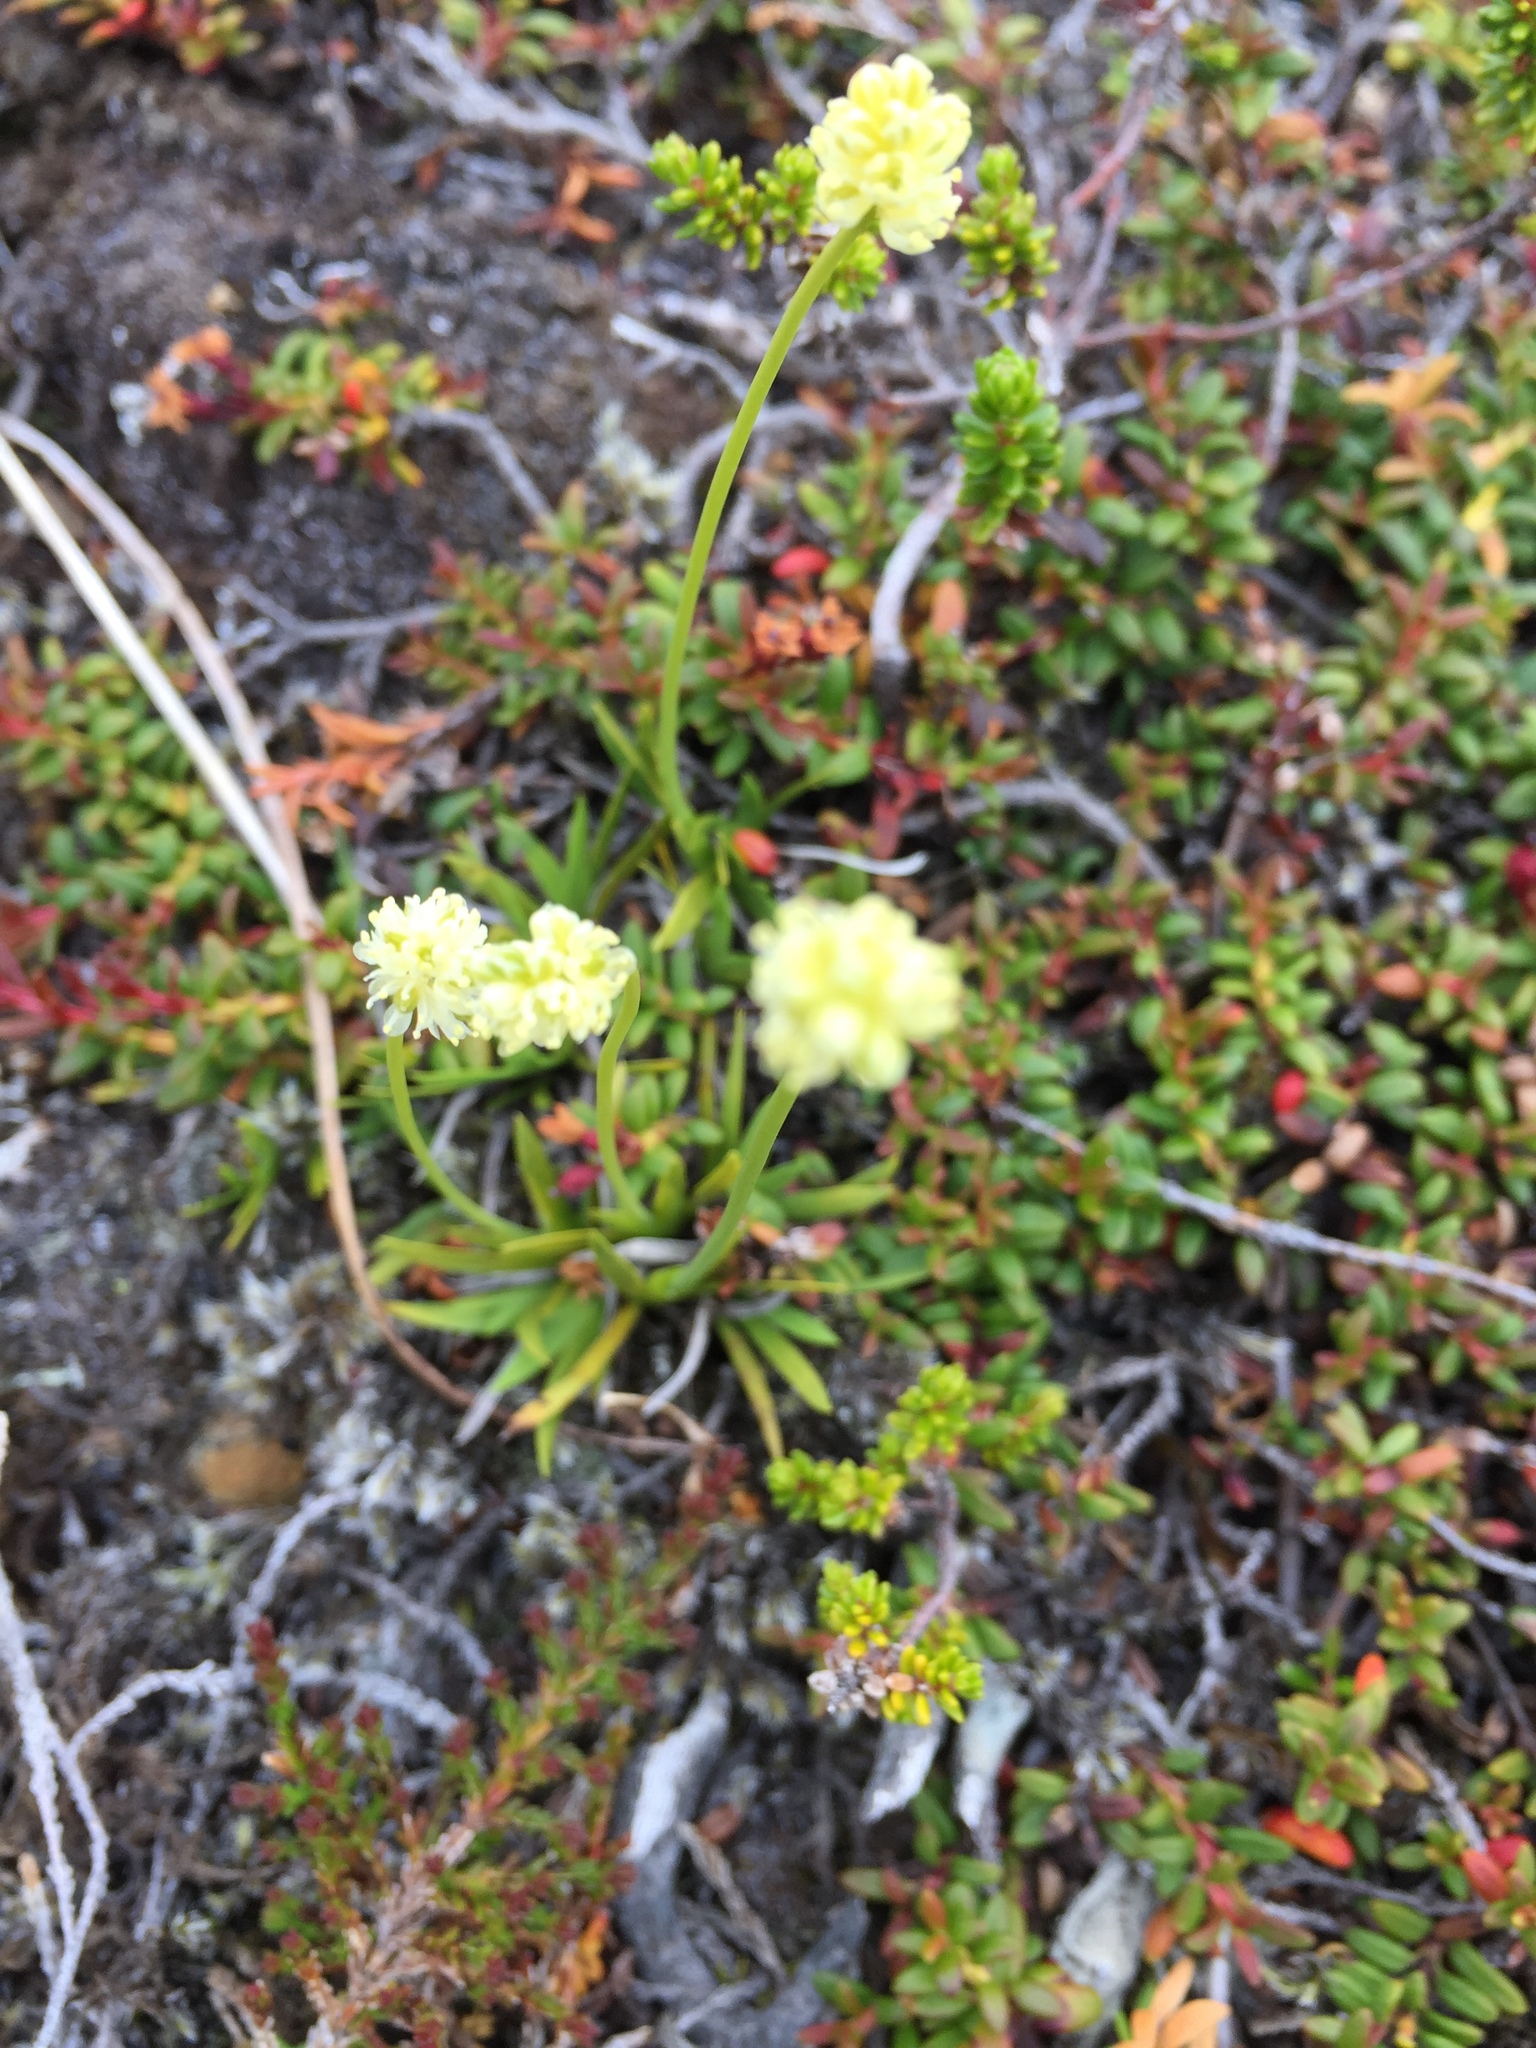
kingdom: Plantae
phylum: Tracheophyta
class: Liliopsida
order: Alismatales
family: Tofieldiaceae
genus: Tofieldia
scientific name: Tofieldia pusilla
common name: Scottish false asphodel
